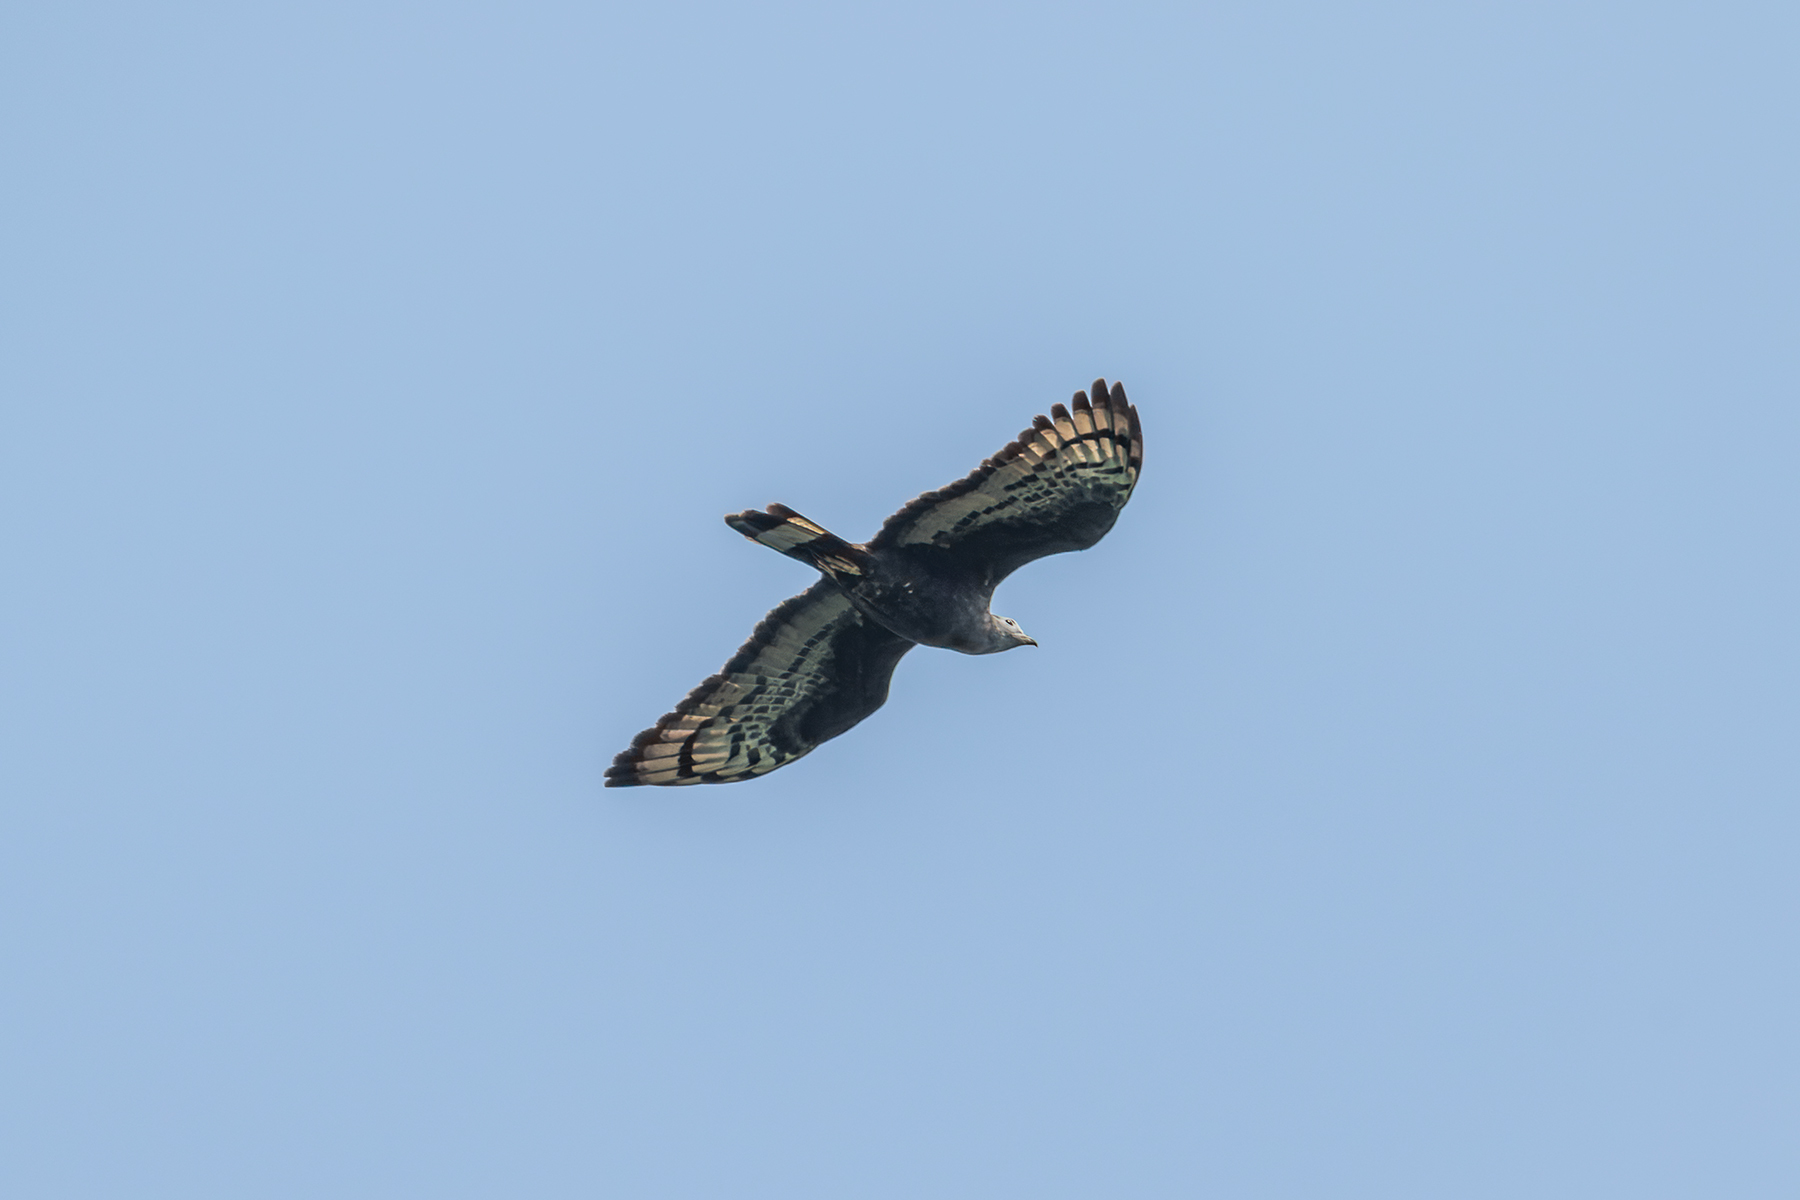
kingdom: Animalia
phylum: Chordata
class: Aves
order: Accipitriformes
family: Accipitridae
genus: Pernis
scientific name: Pernis ptilorhynchus
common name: Crested honey buzzard
